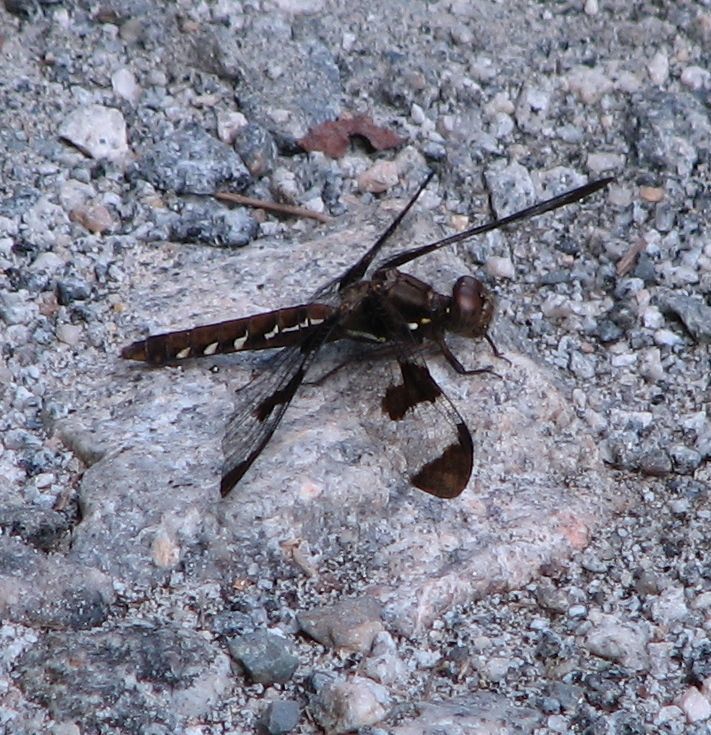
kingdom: Animalia
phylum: Arthropoda
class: Insecta
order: Odonata
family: Libellulidae
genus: Plathemis
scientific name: Plathemis lydia
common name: Common whitetail
